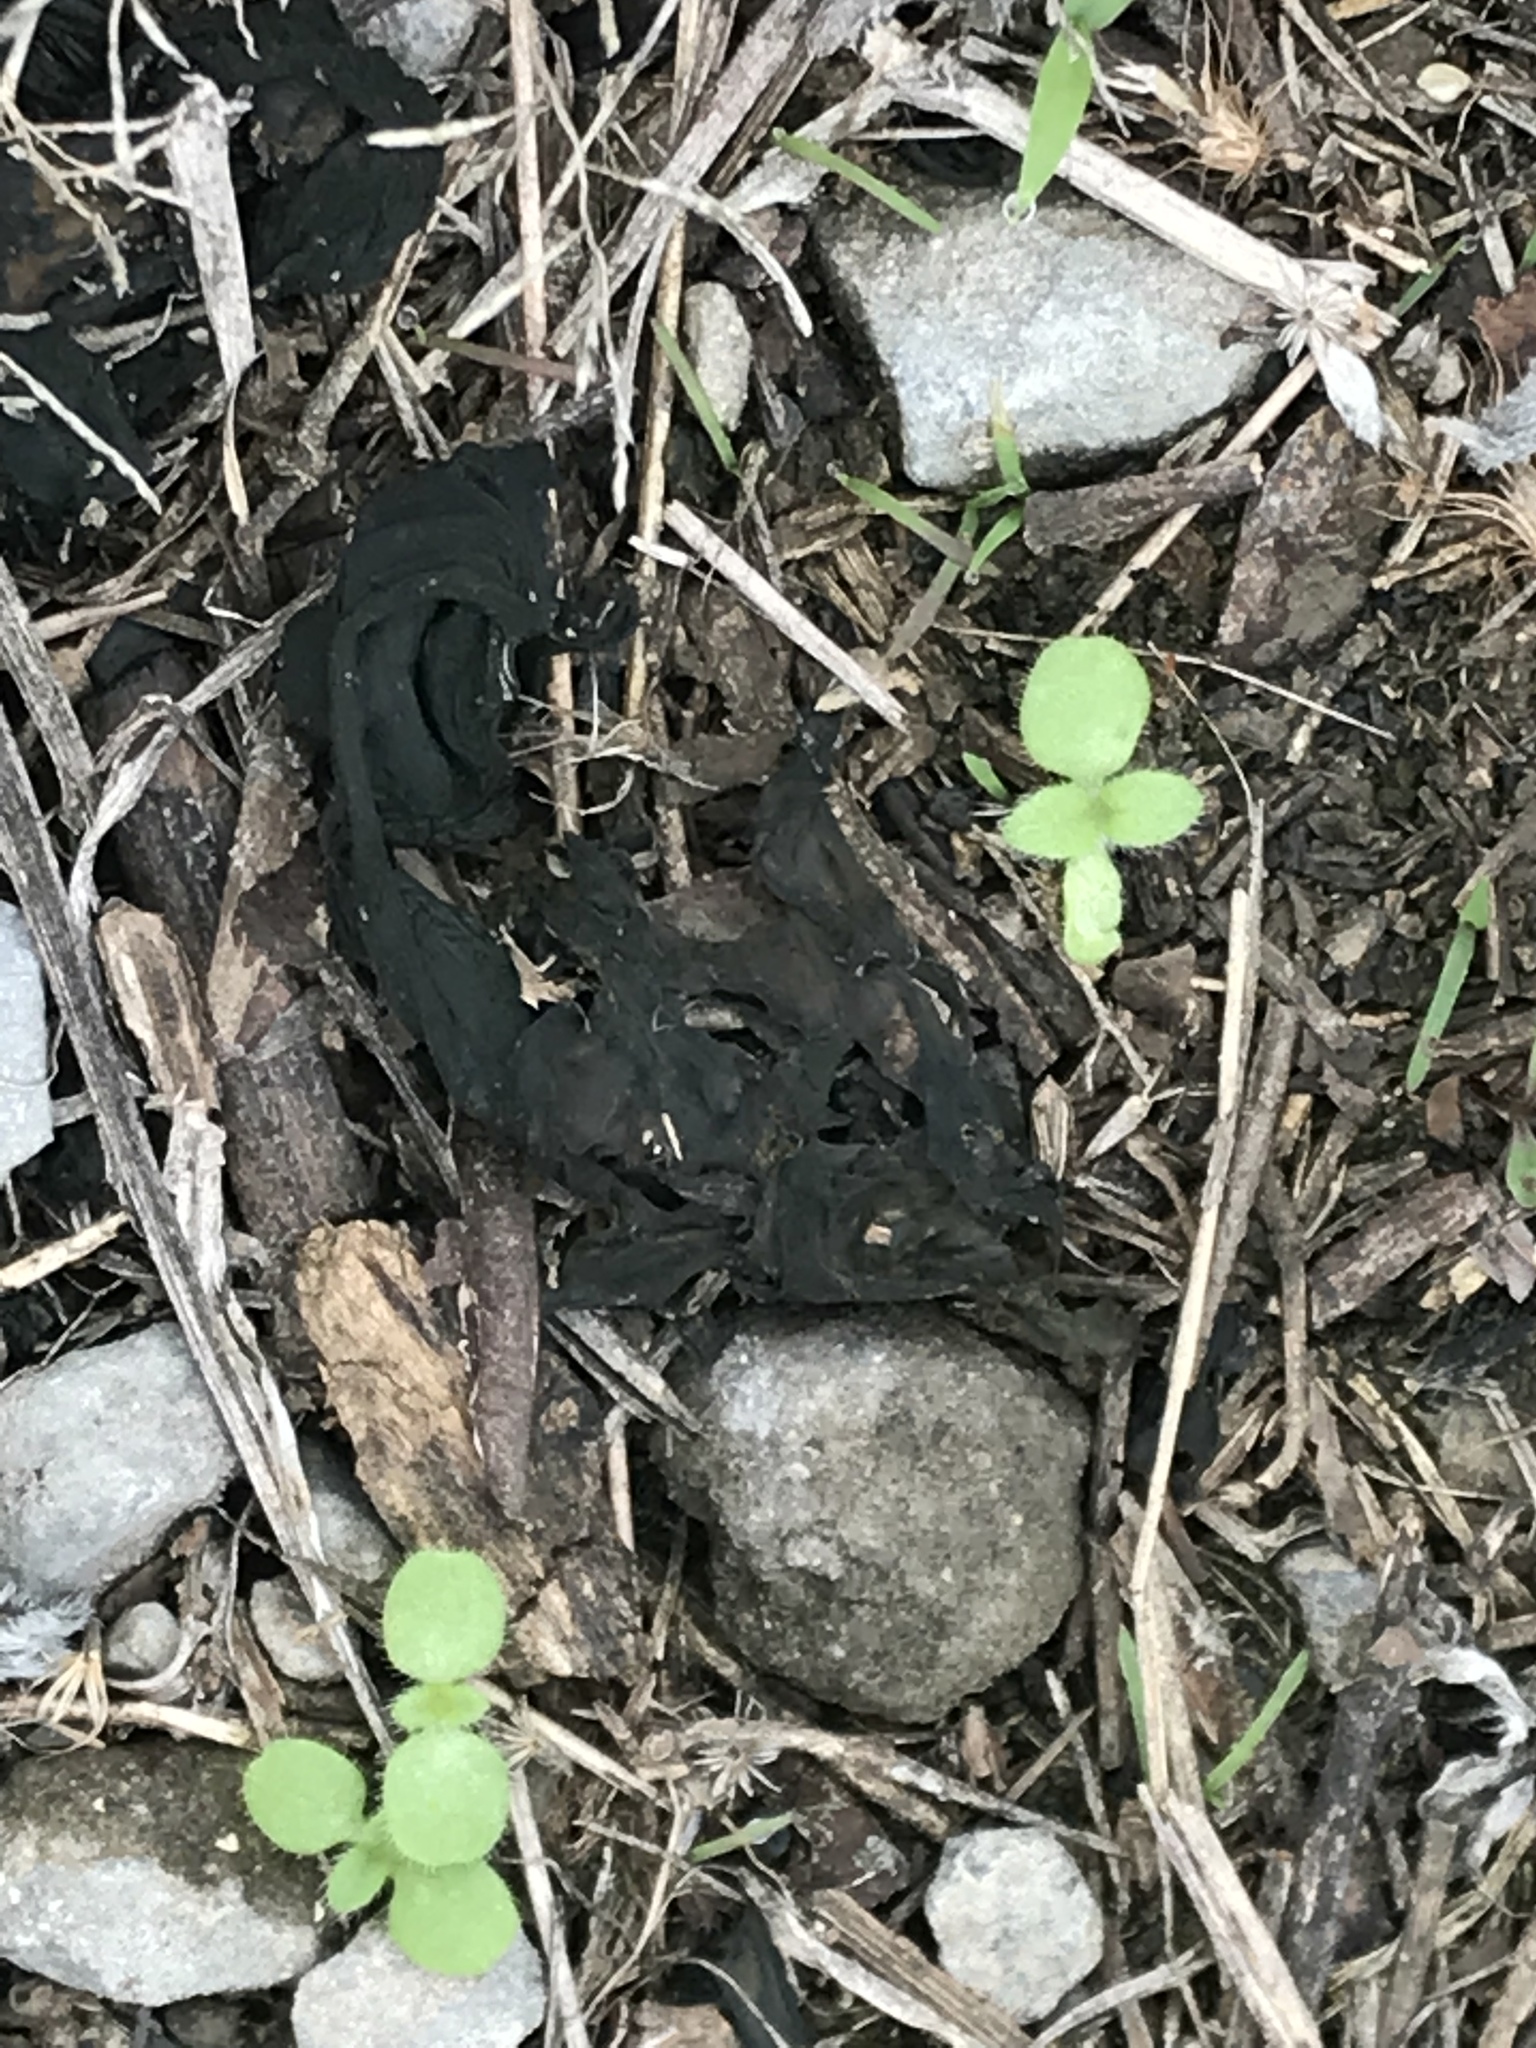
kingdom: Bacteria
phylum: Cyanobacteria
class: Cyanobacteriia
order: Cyanobacteriales
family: Nostocaceae
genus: Nostoc
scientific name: Nostoc commune
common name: Star jelly
